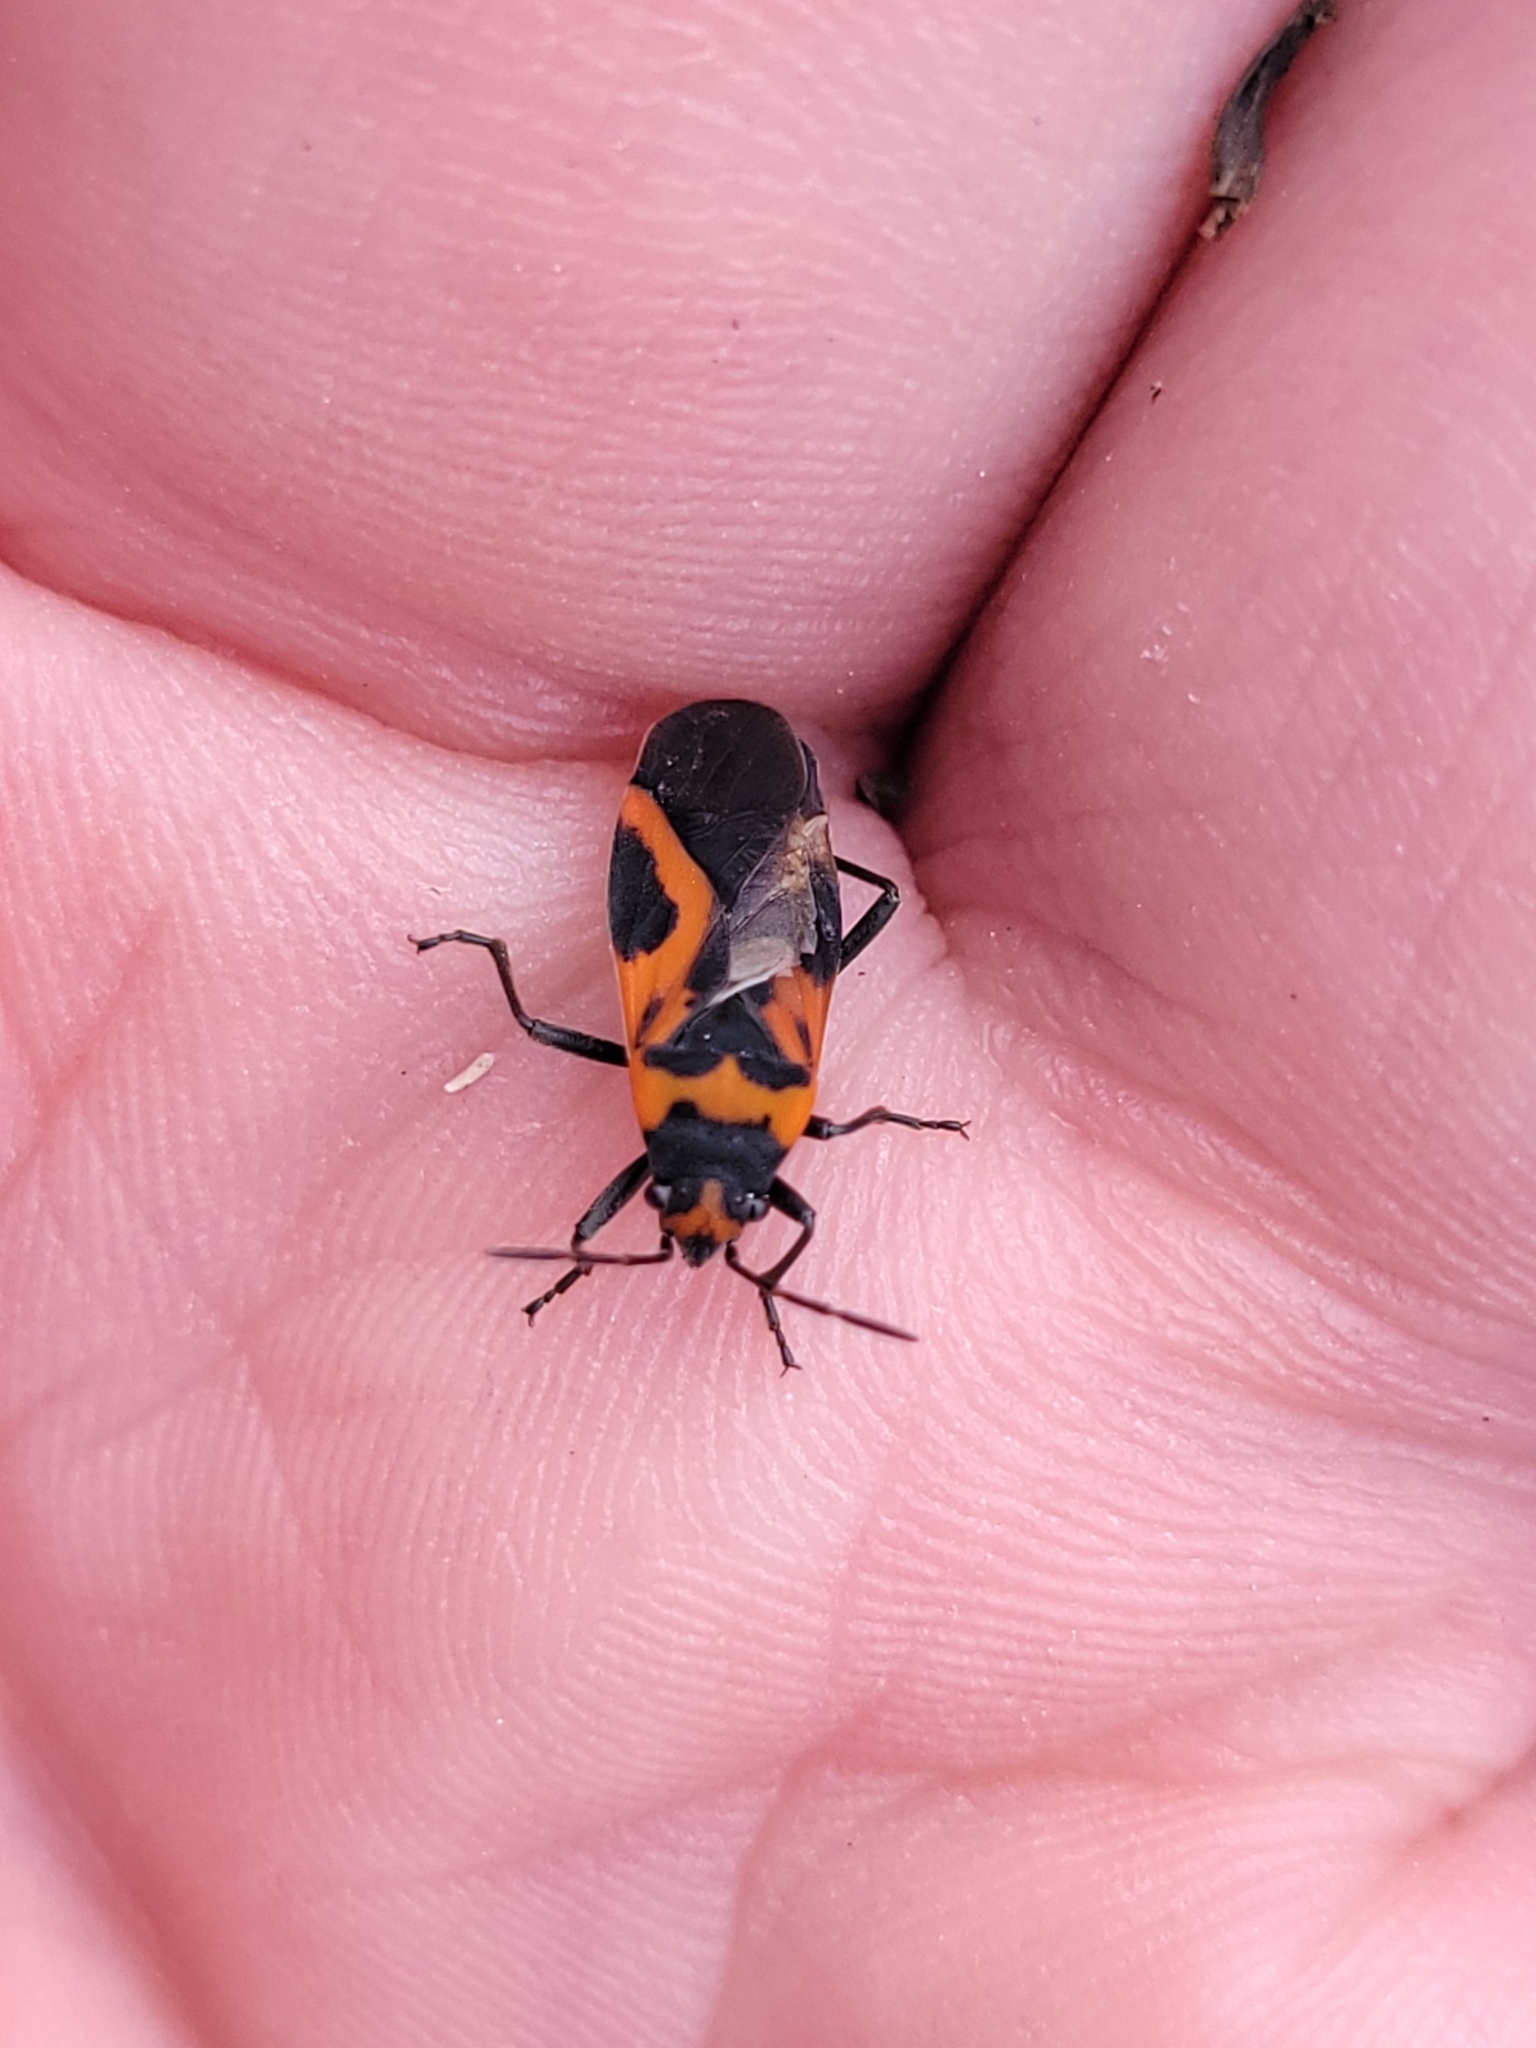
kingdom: Animalia
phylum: Arthropoda
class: Insecta
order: Hemiptera
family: Lygaeidae
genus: Lygaeus
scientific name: Lygaeus turcicus
